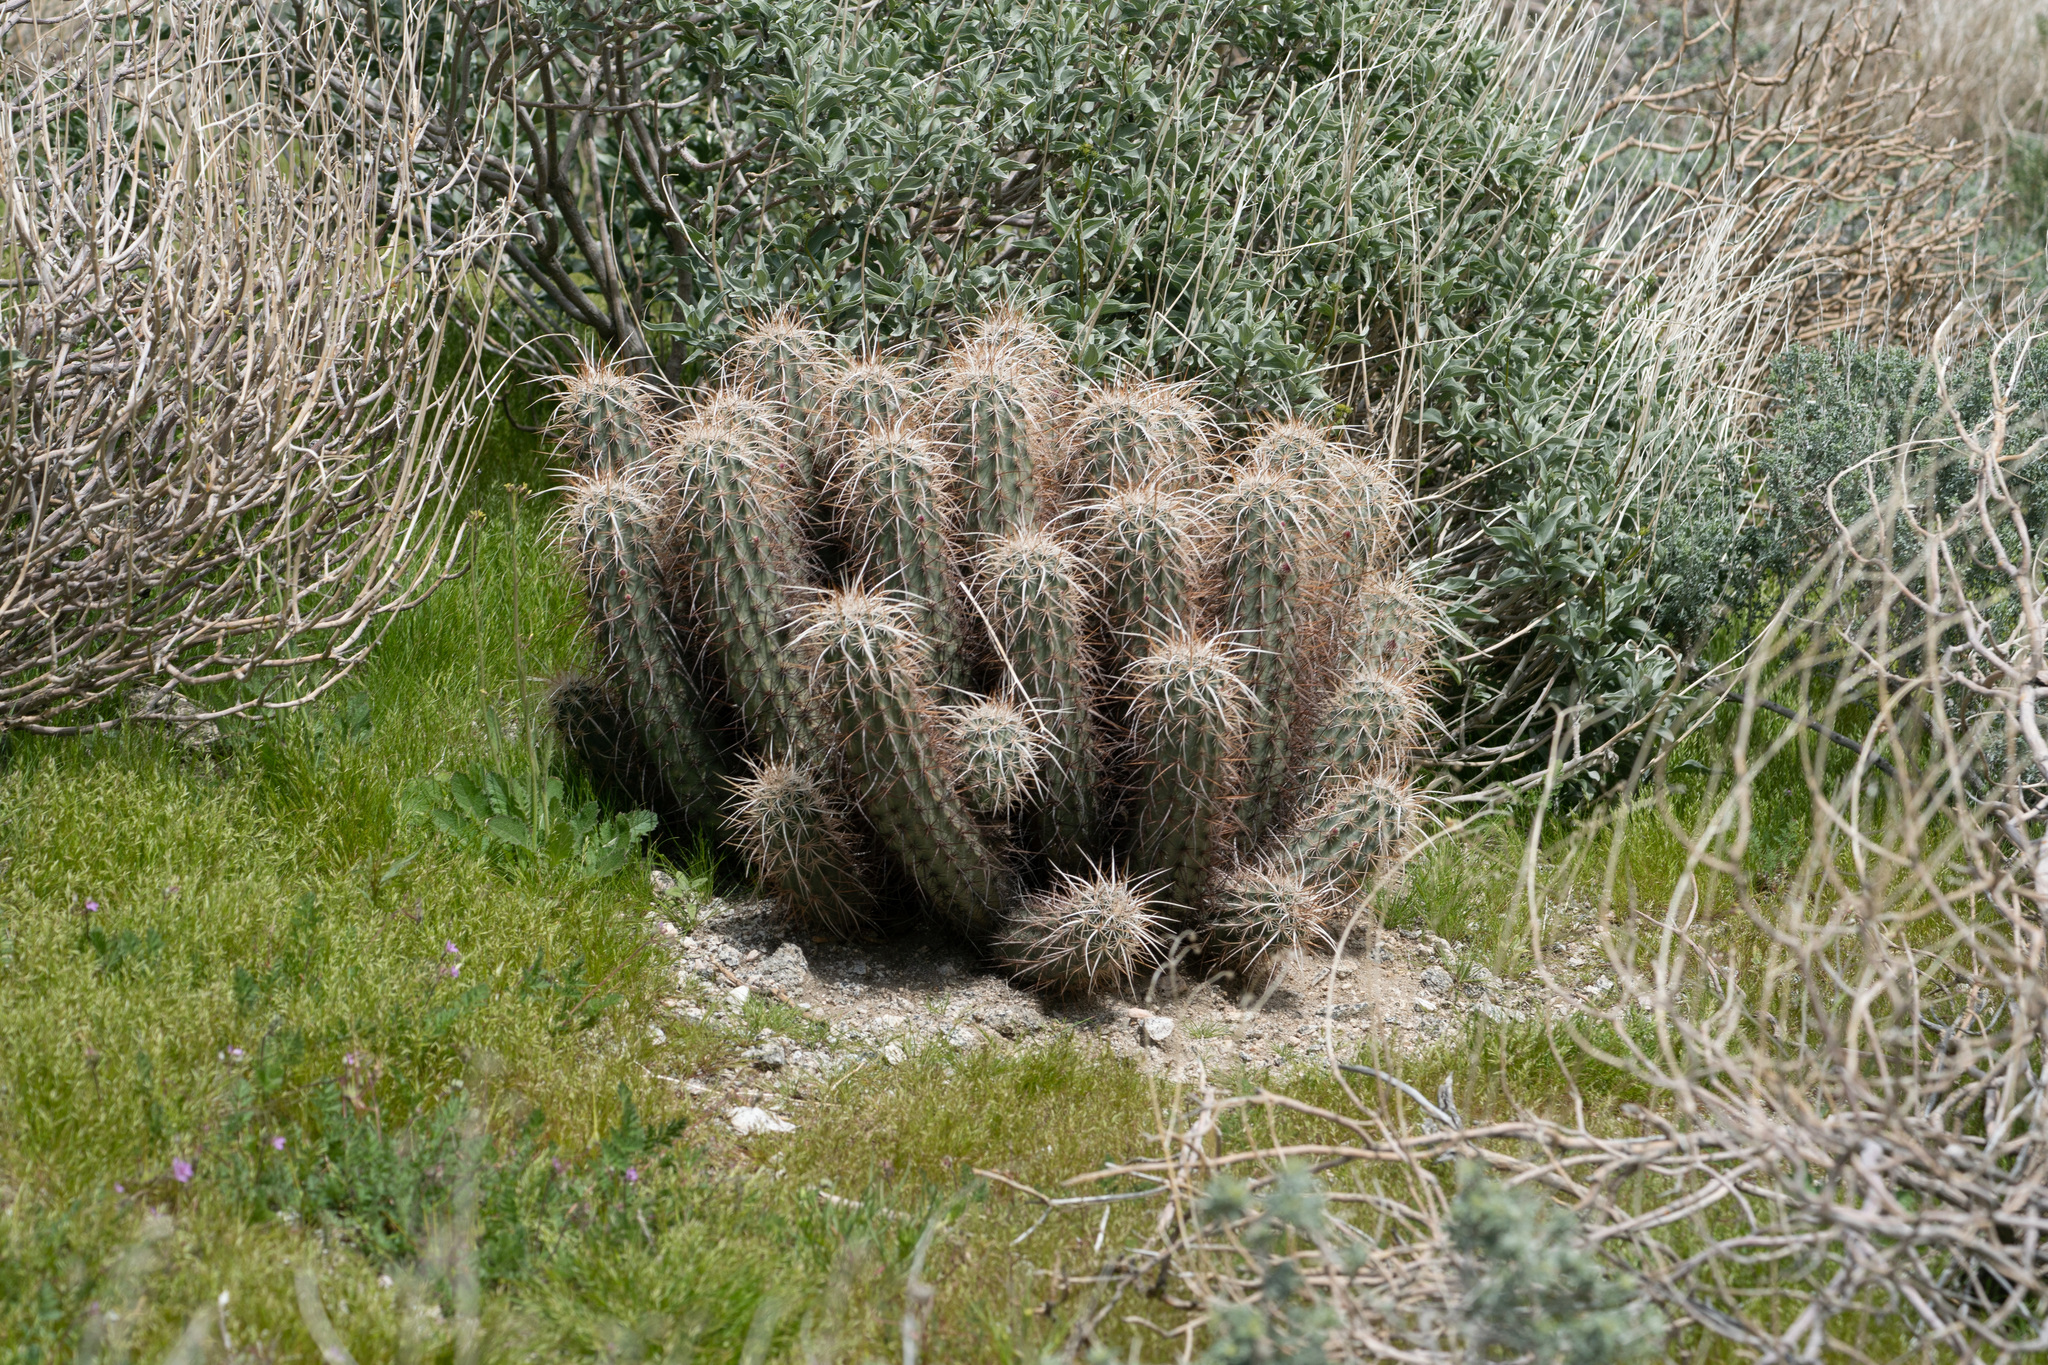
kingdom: Plantae
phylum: Tracheophyta
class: Magnoliopsida
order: Caryophyllales
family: Cactaceae
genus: Echinocereus
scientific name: Echinocereus engelmannii
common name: Engelmann's hedgehog cactus
